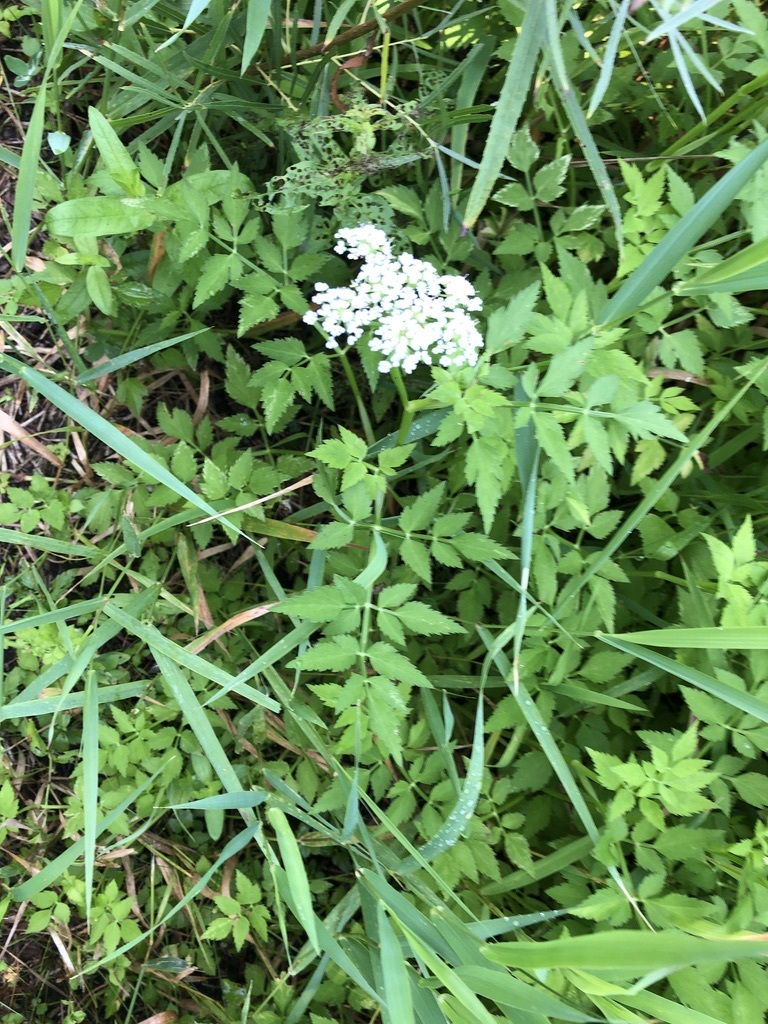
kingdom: Plantae
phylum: Tracheophyta
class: Magnoliopsida
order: Apiales
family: Apiaceae
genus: Oenanthe
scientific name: Oenanthe javanica
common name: Java water-dropwort
